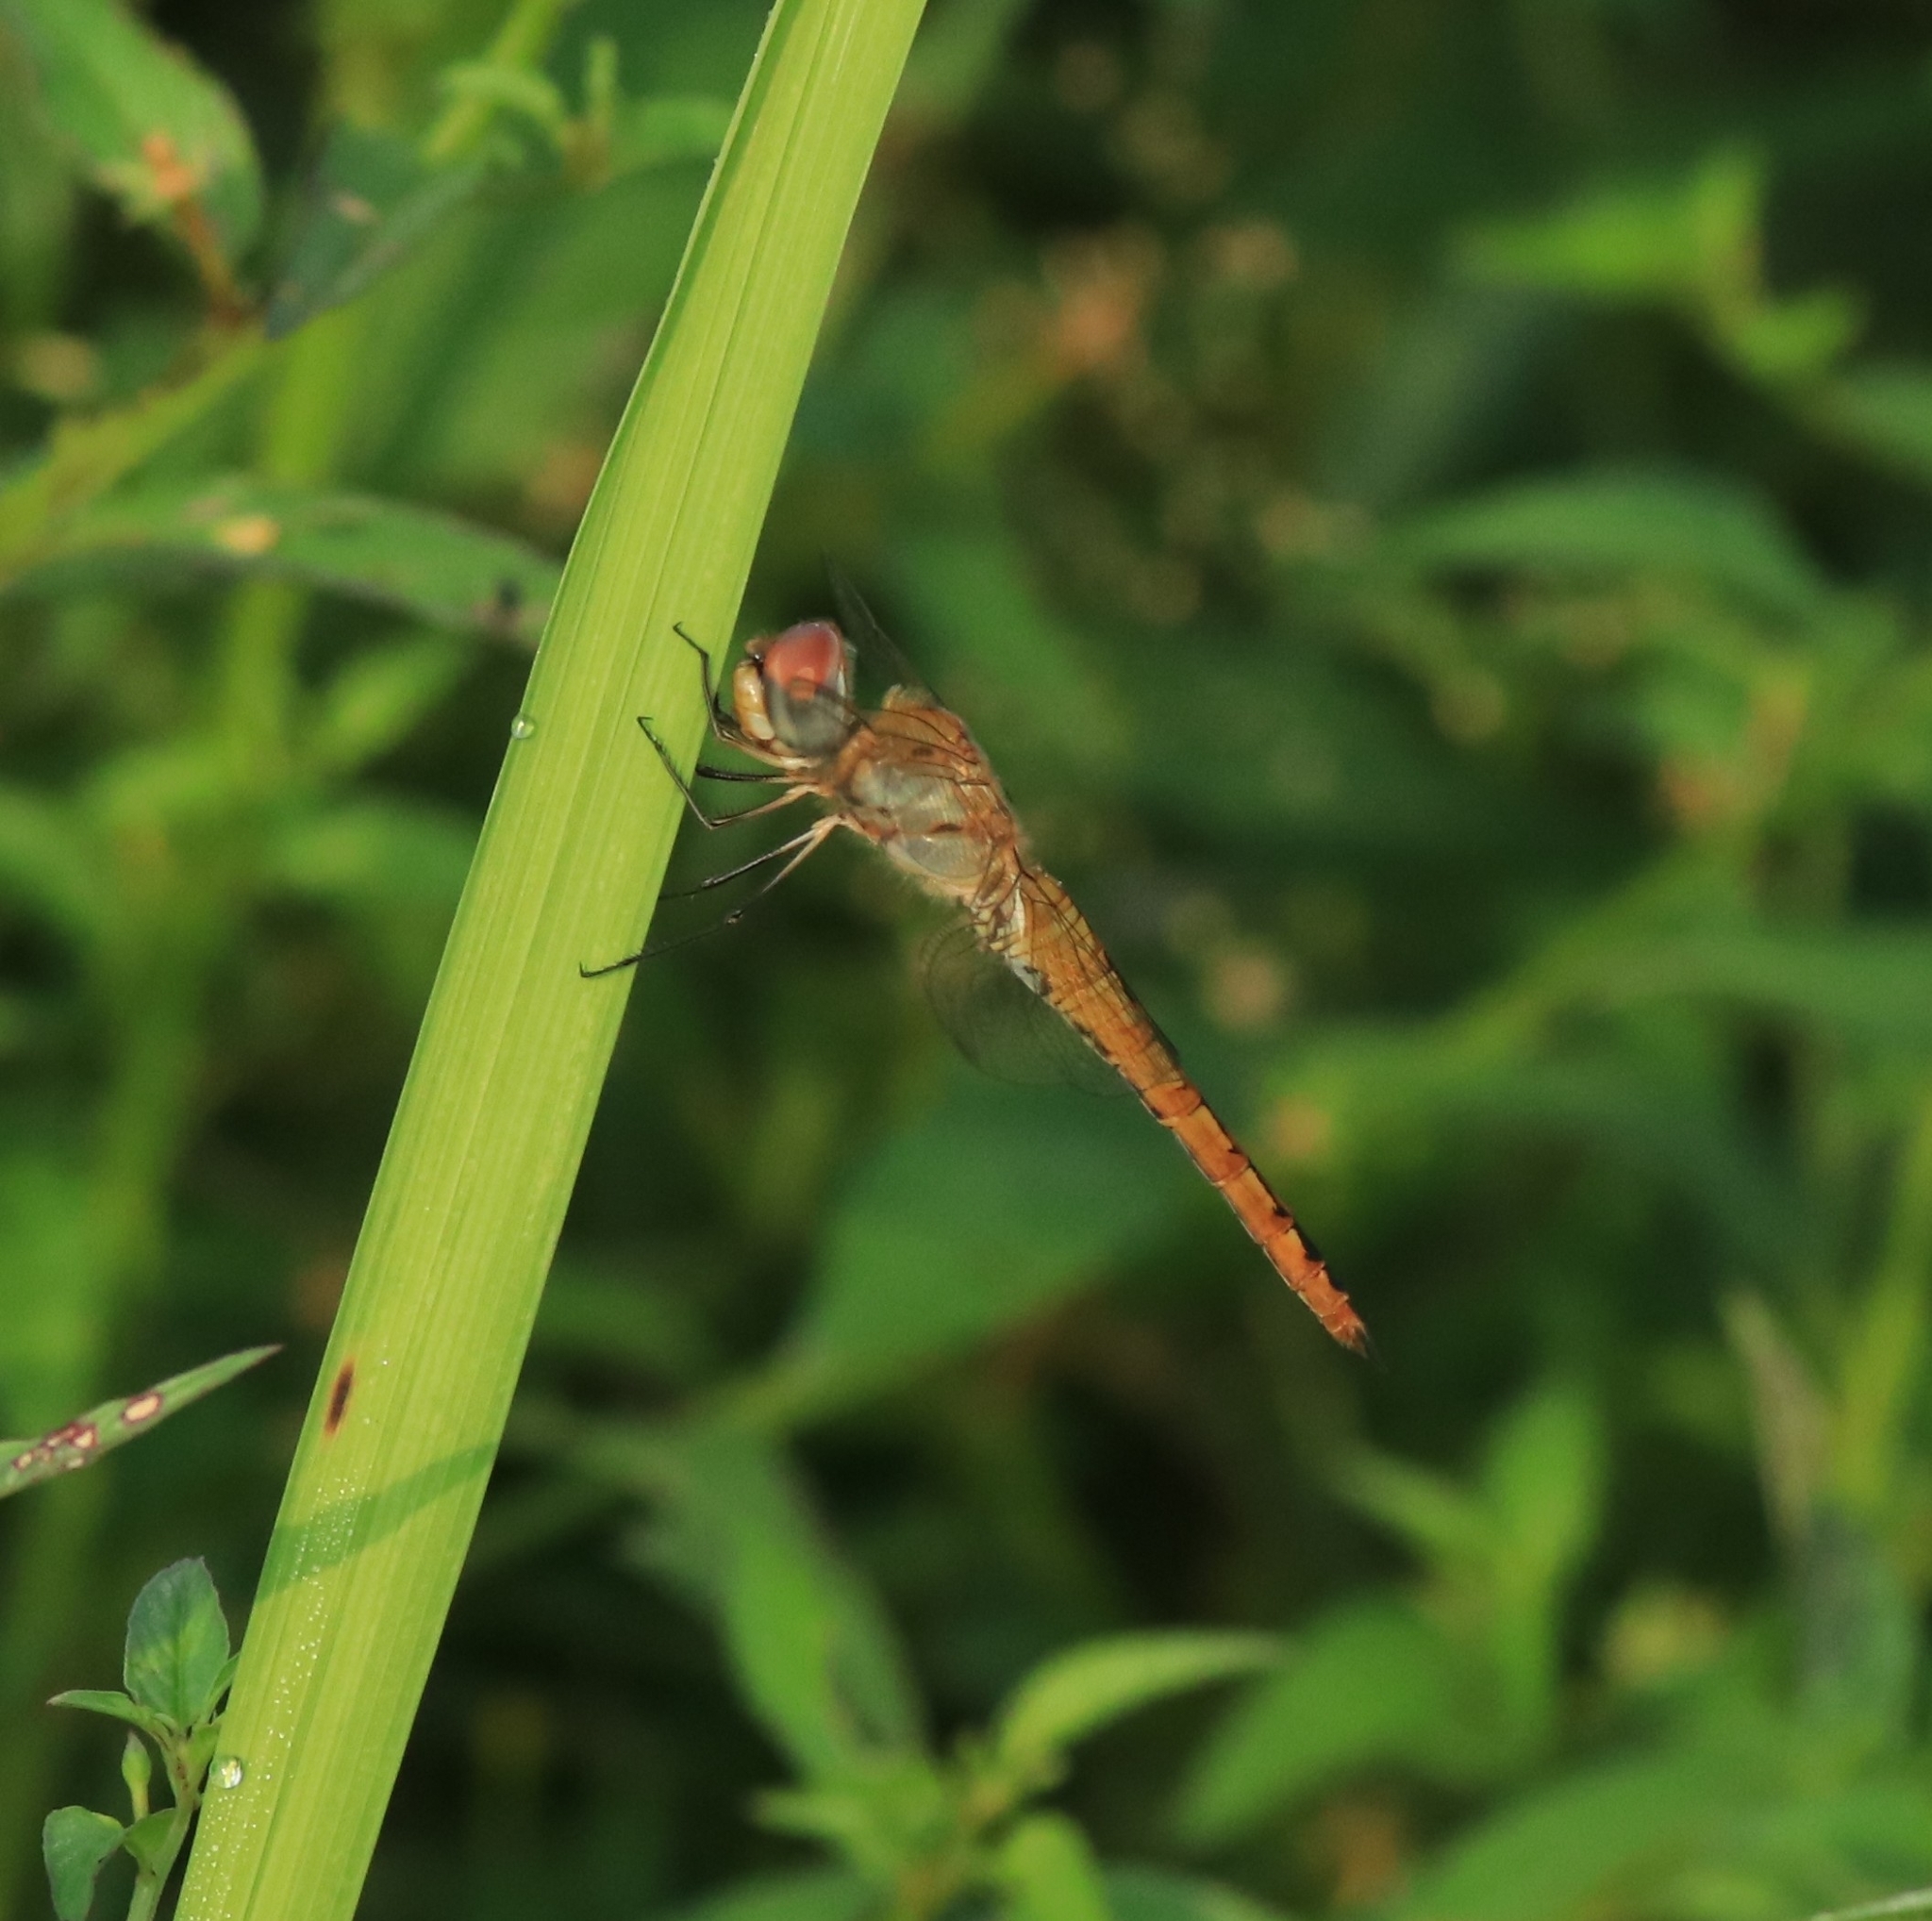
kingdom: Animalia
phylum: Arthropoda
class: Insecta
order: Odonata
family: Libellulidae
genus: Pantala
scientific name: Pantala flavescens
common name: Wandering glider
